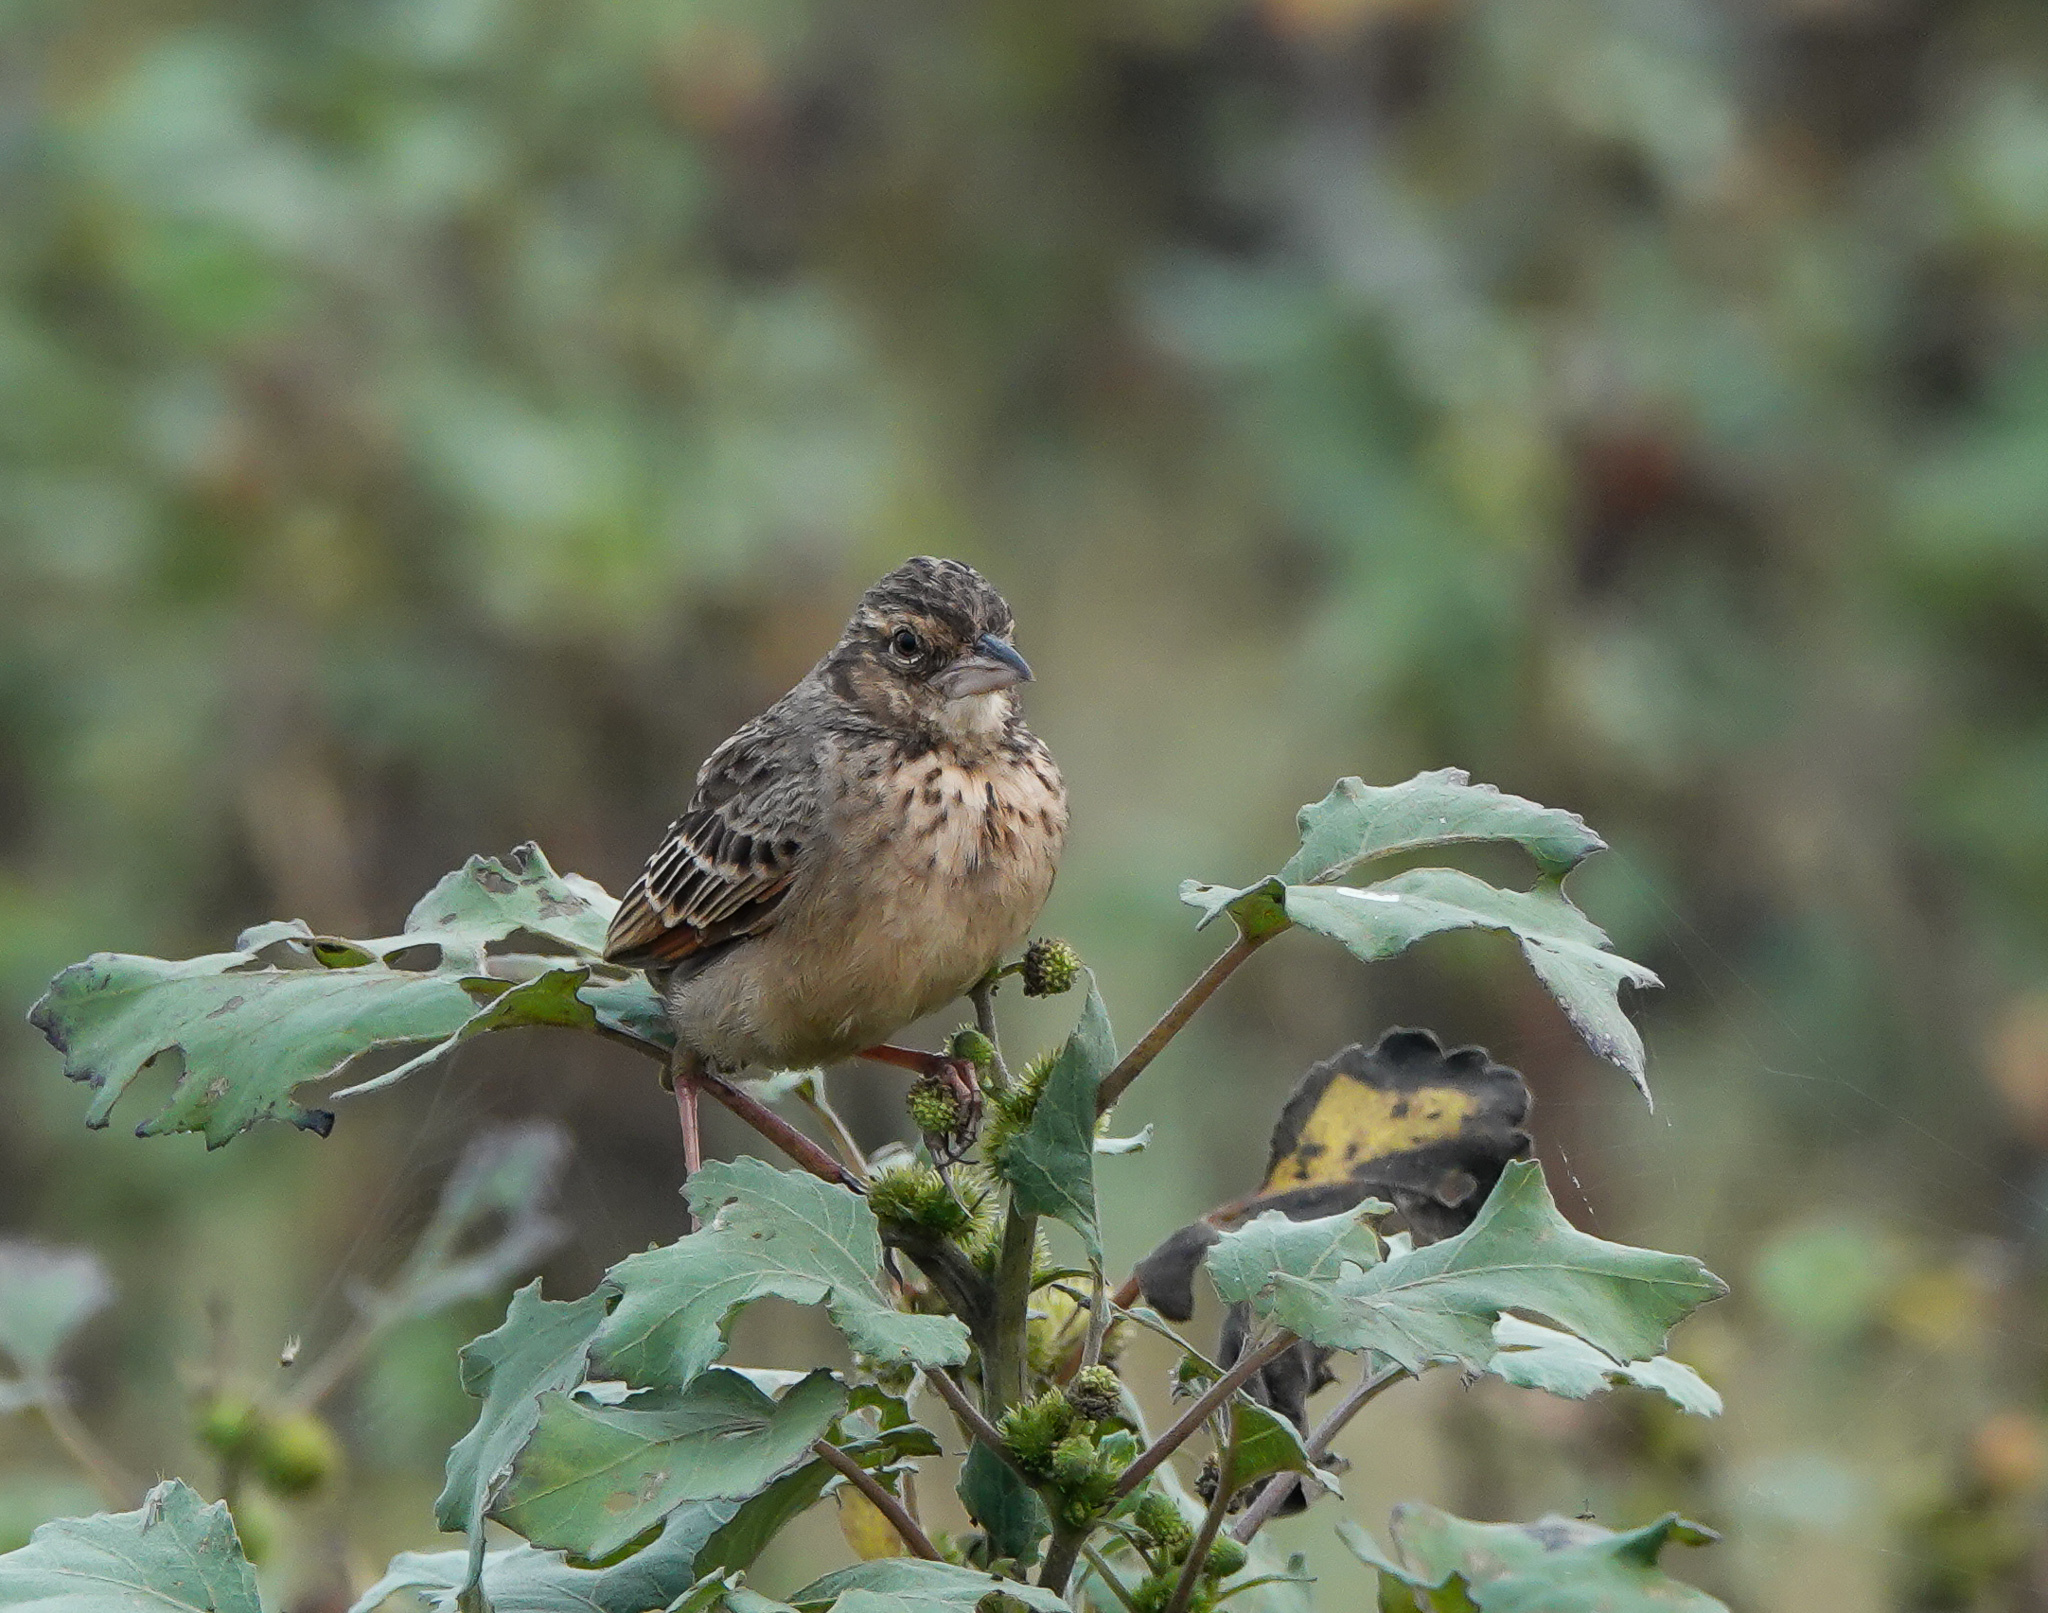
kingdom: Animalia
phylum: Chordata
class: Aves
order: Passeriformes
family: Alaudidae
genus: Mirafra
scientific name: Mirafra assamica
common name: Bengal bush lark
